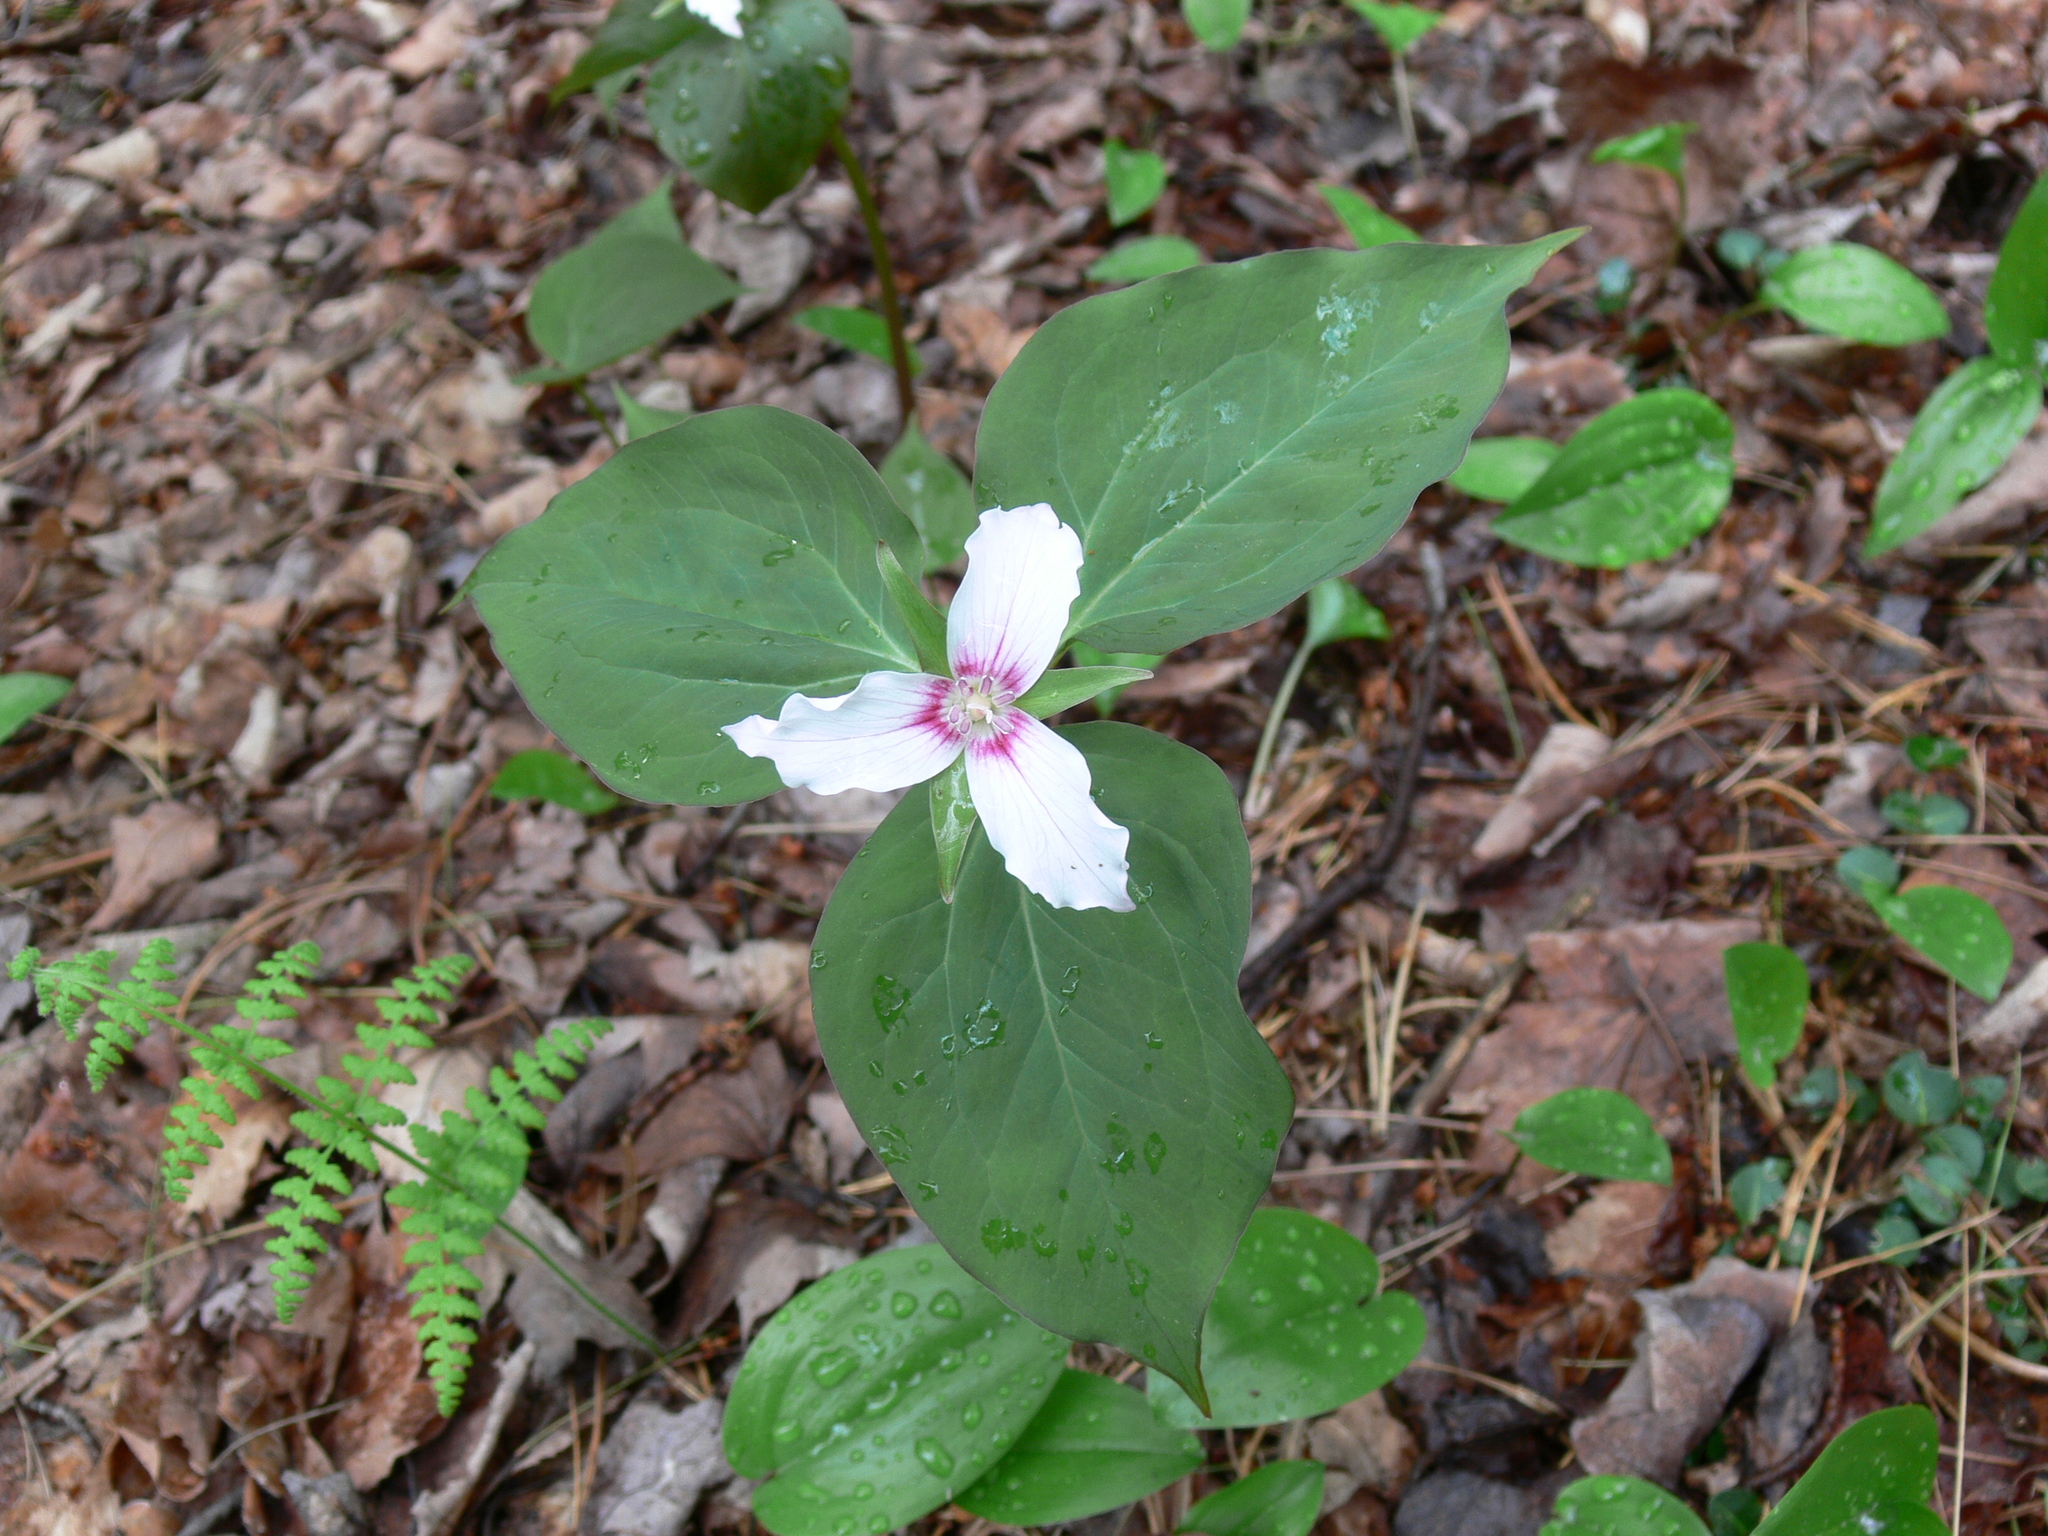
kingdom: Plantae
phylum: Tracheophyta
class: Liliopsida
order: Liliales
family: Melanthiaceae
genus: Trillium
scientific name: Trillium undulatum
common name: Paint trillium
